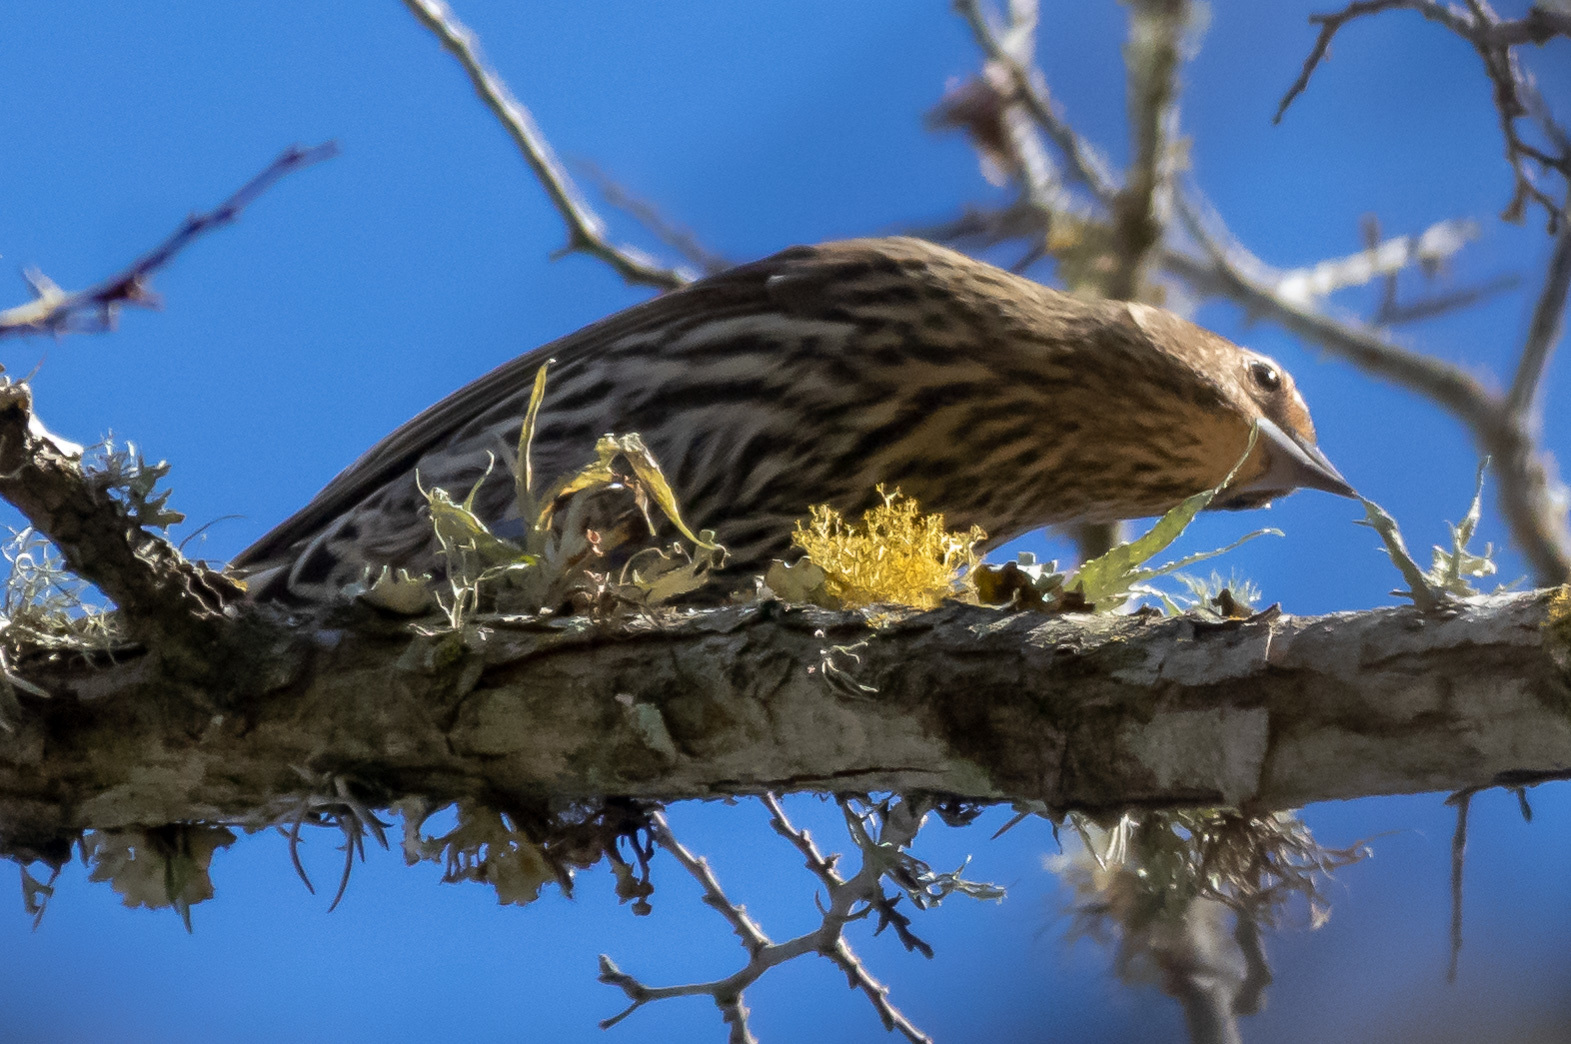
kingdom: Animalia
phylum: Chordata
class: Aves
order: Passeriformes
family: Icteridae
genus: Agelaius
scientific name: Agelaius phoeniceus
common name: Red-winged blackbird
